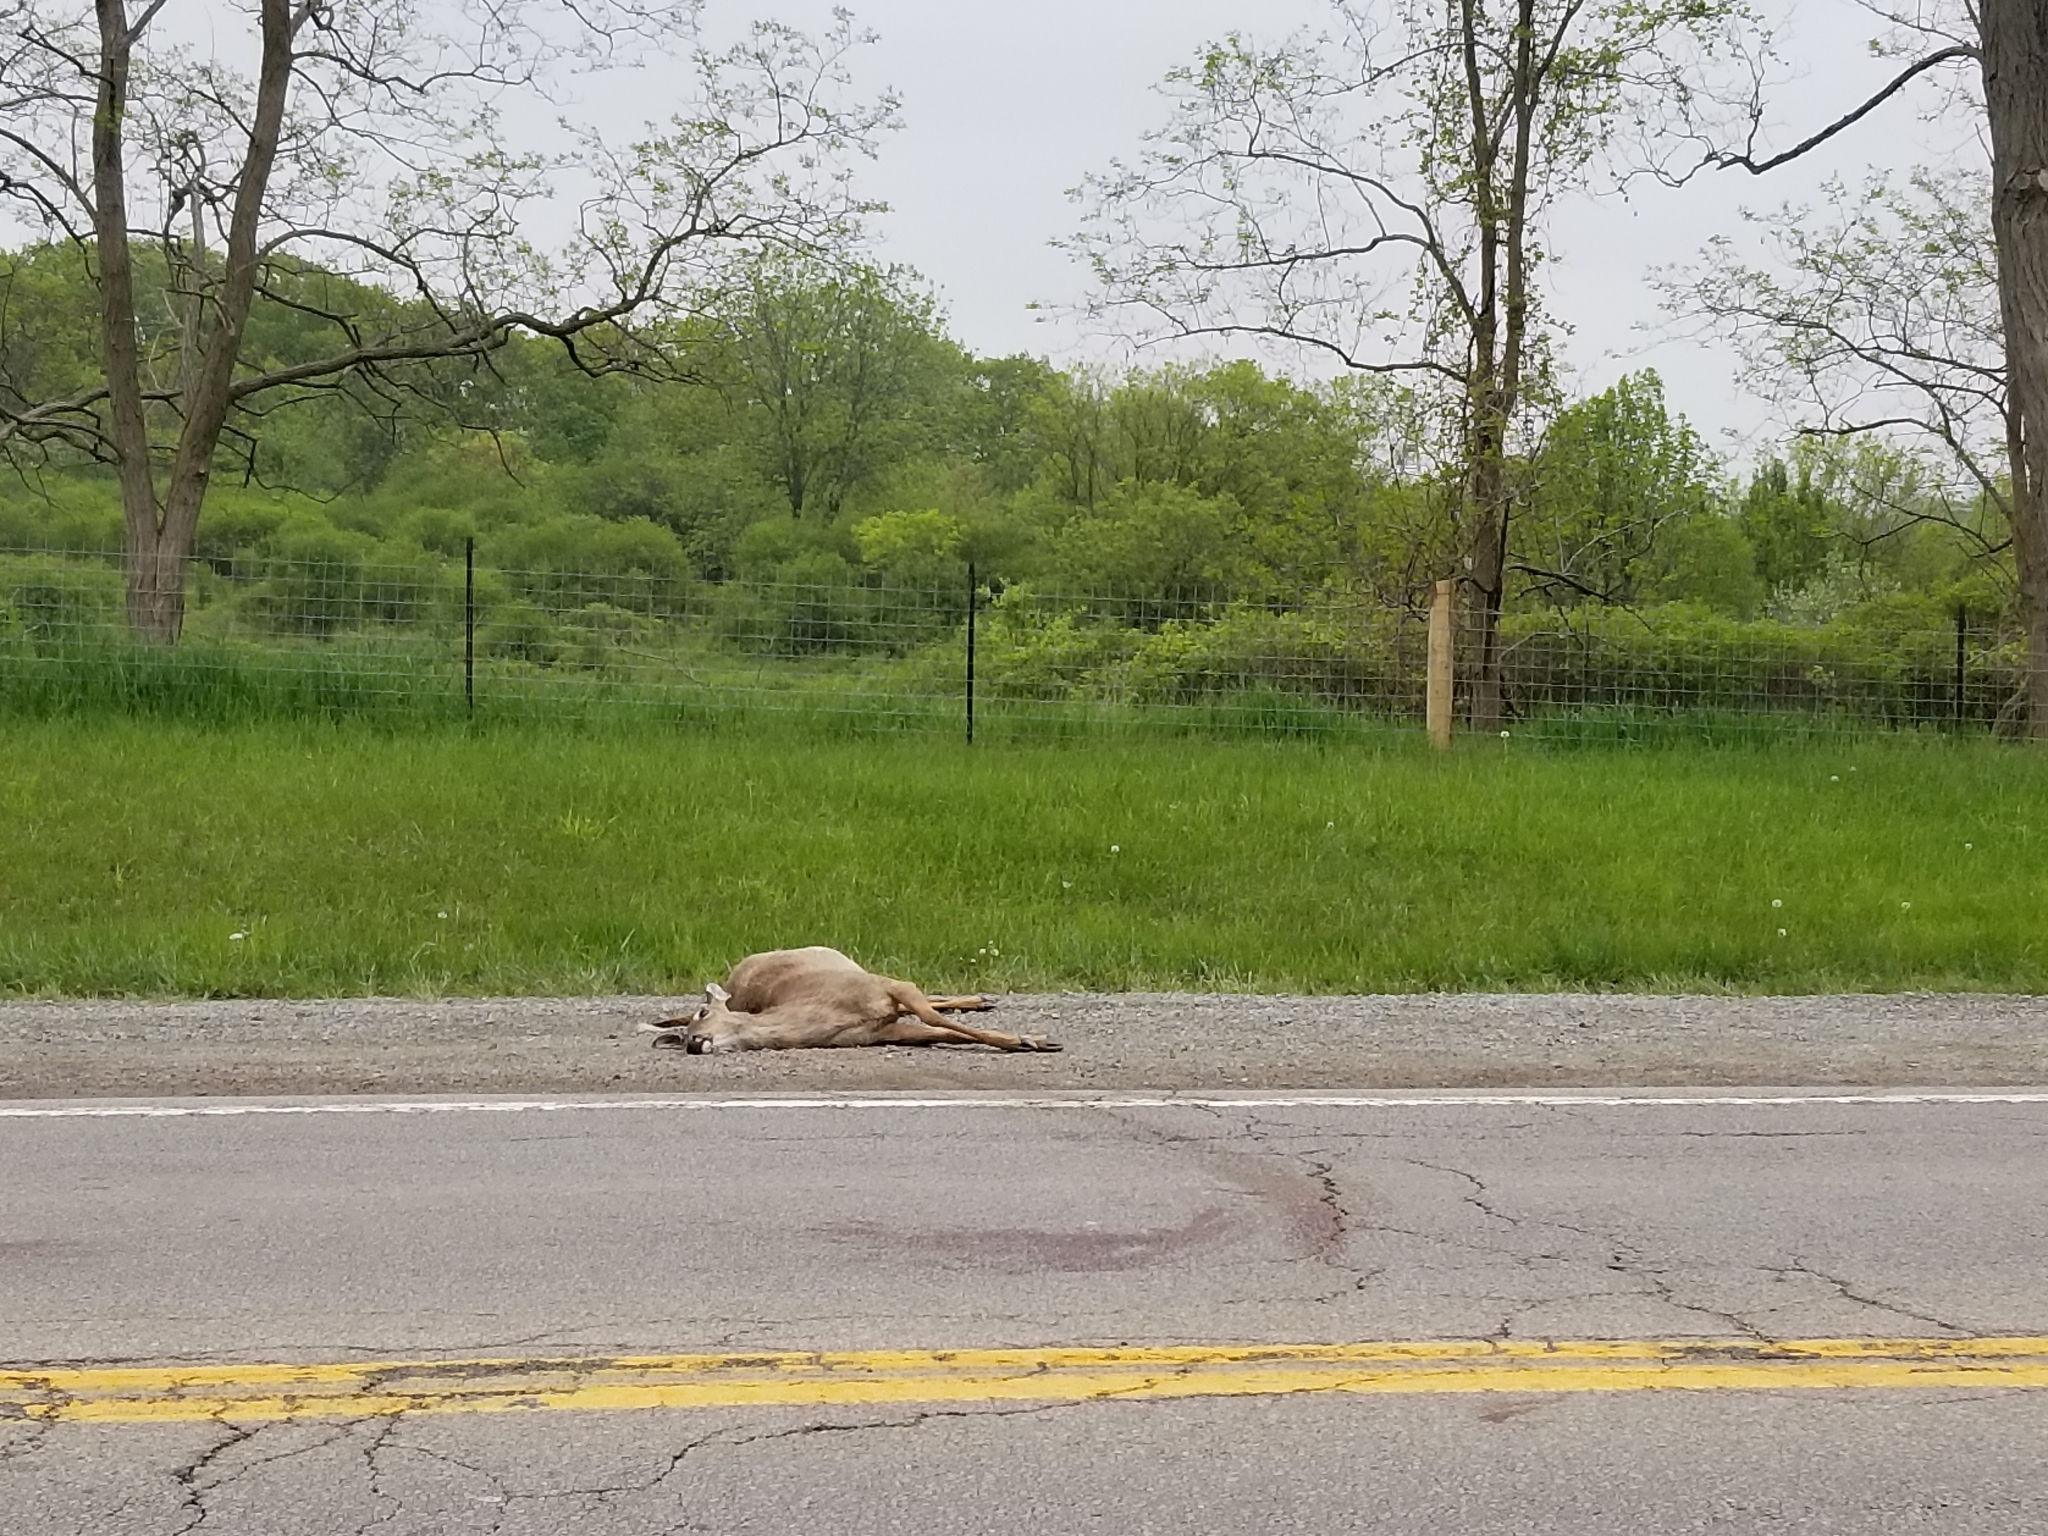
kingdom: Animalia
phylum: Chordata
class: Mammalia
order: Artiodactyla
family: Cervidae
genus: Odocoileus
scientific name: Odocoileus virginianus
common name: White-tailed deer
